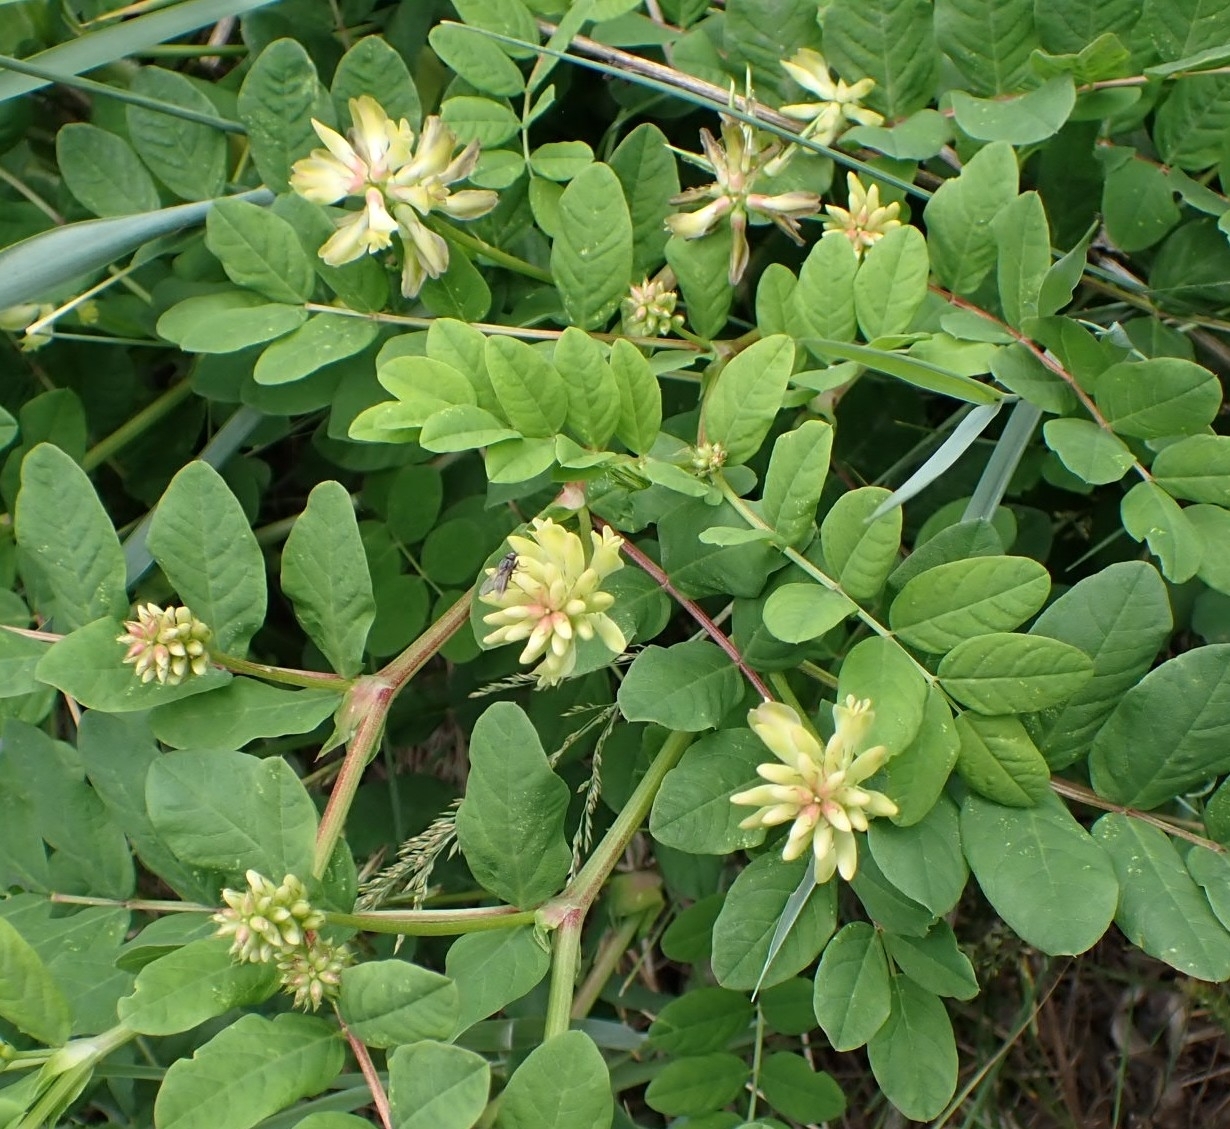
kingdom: Plantae
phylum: Tracheophyta
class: Magnoliopsida
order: Fabales
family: Fabaceae
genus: Astragalus
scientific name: Astragalus glycyphyllos
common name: Wild liquorice
